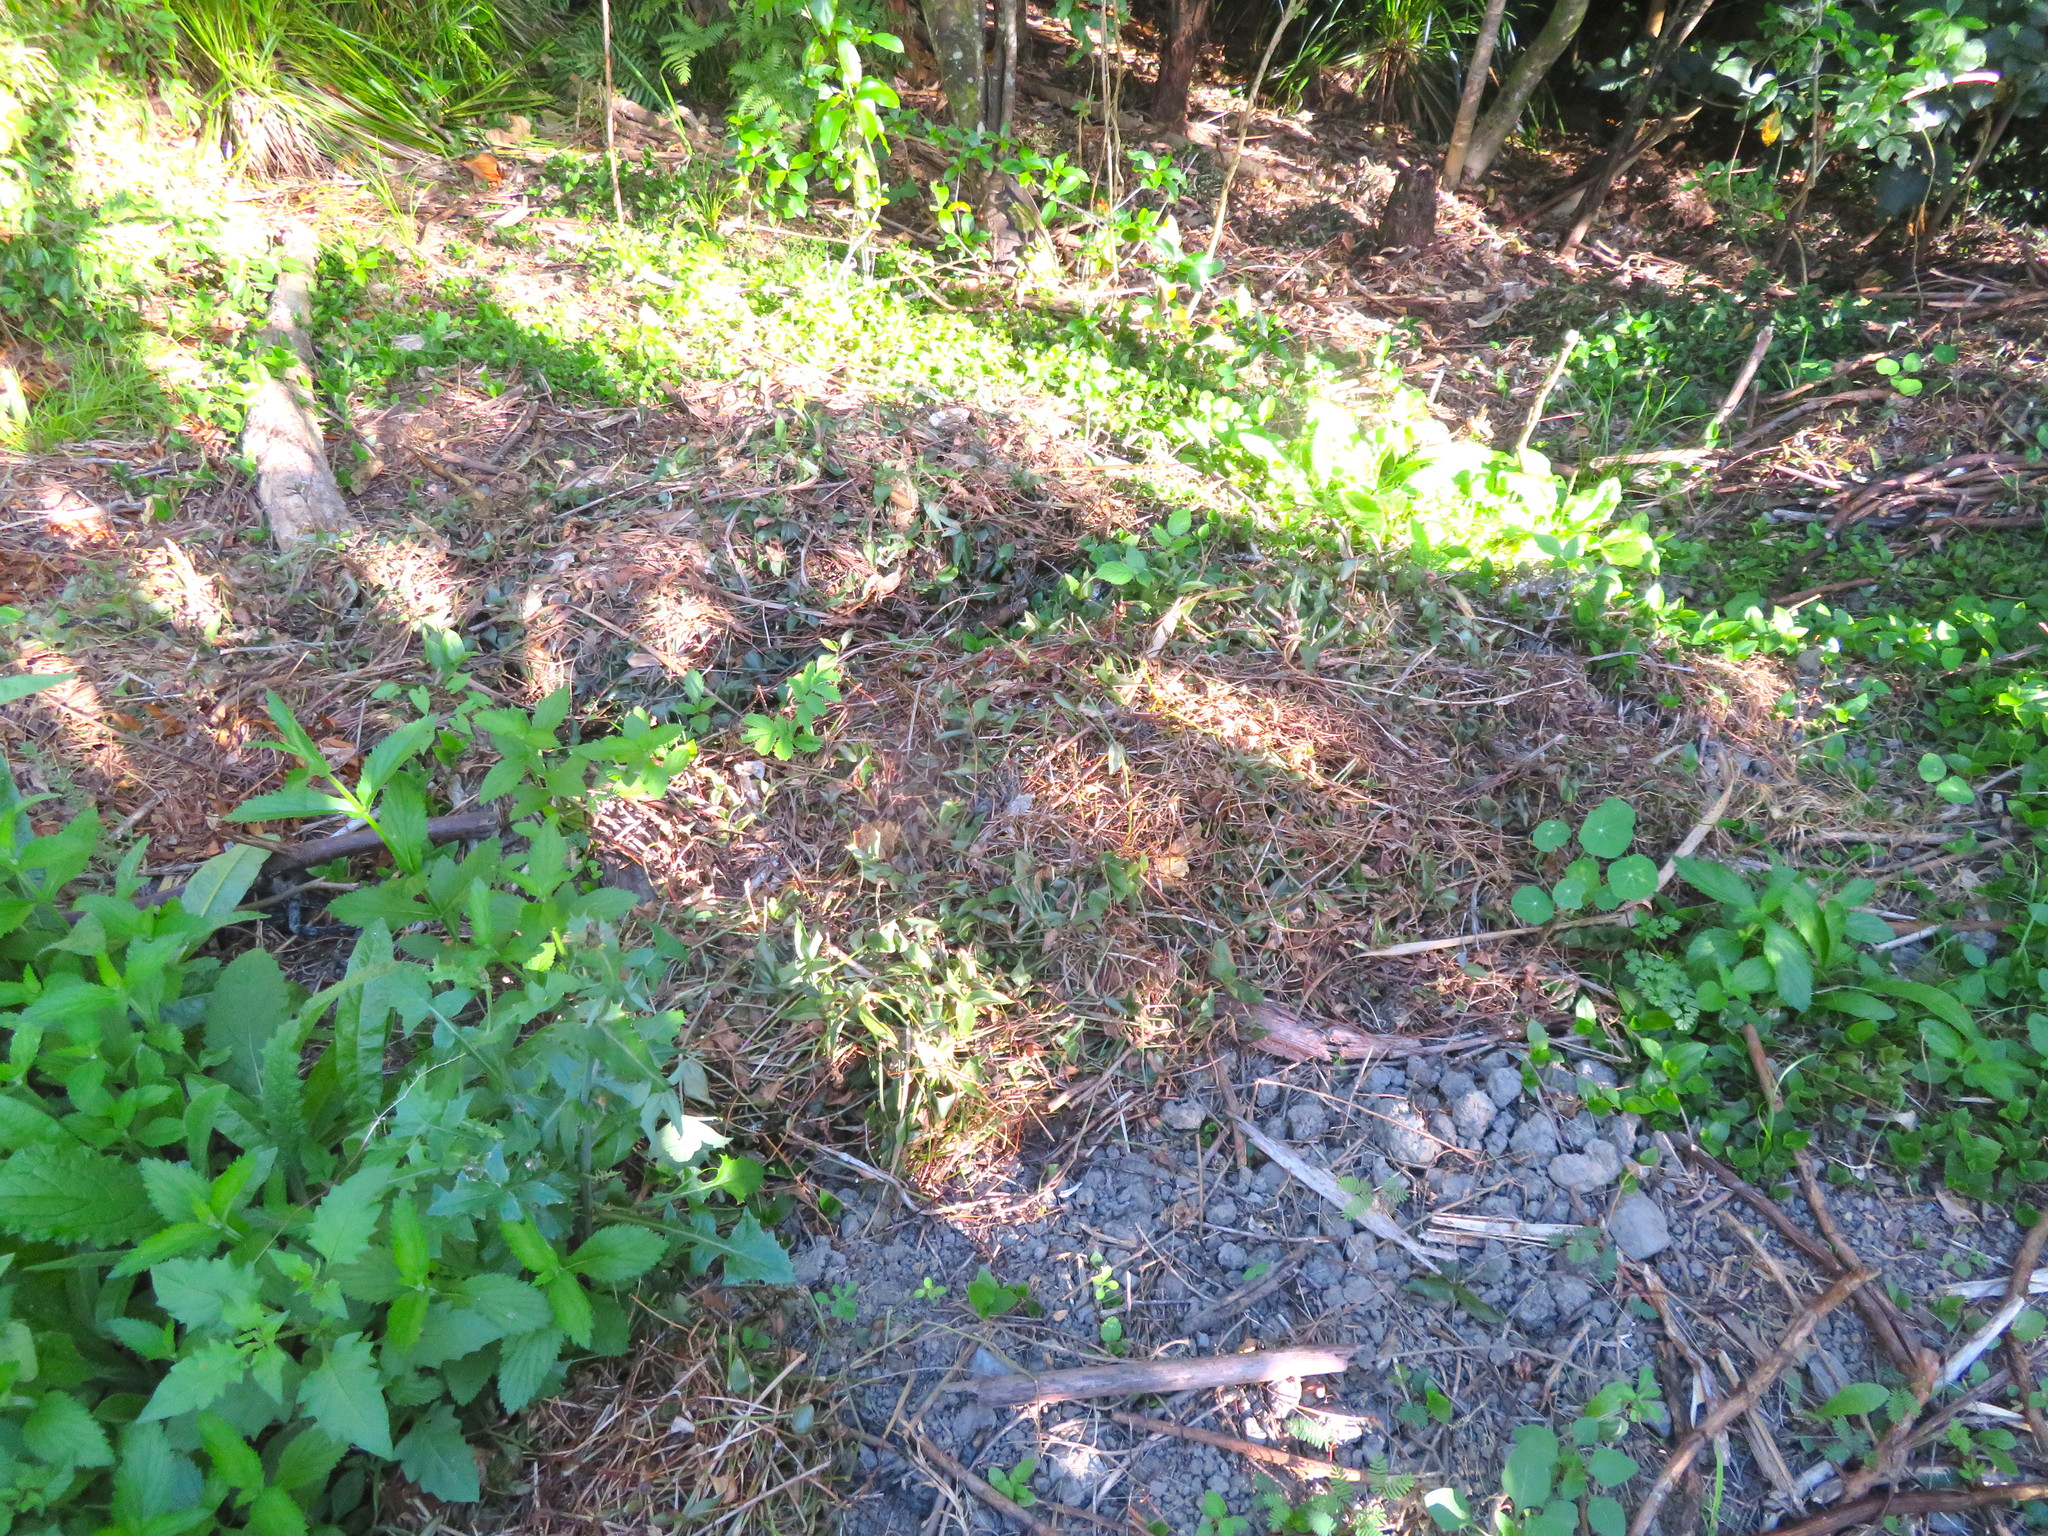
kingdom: Plantae
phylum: Tracheophyta
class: Liliopsida
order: Commelinales
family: Commelinaceae
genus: Tradescantia
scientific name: Tradescantia fluminensis
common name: Wandering-jew
